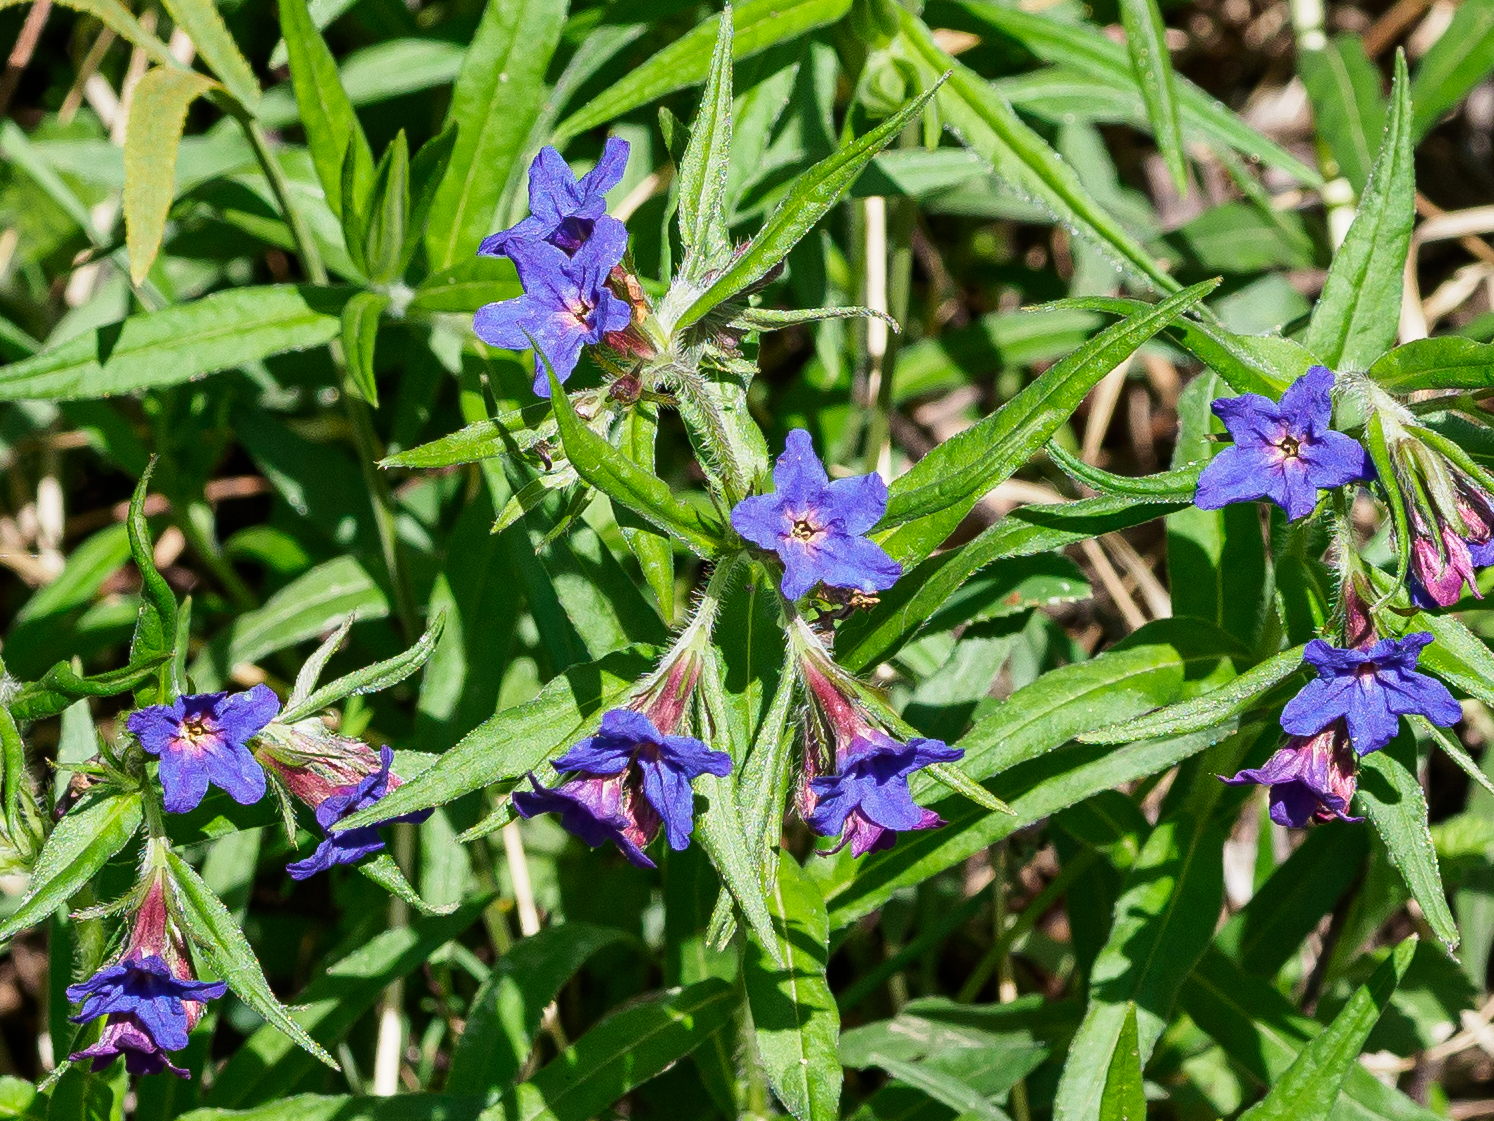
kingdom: Plantae
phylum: Tracheophyta
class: Magnoliopsida
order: Boraginales
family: Boraginaceae
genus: Aegonychon
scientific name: Aegonychon purpurocaeruleum
